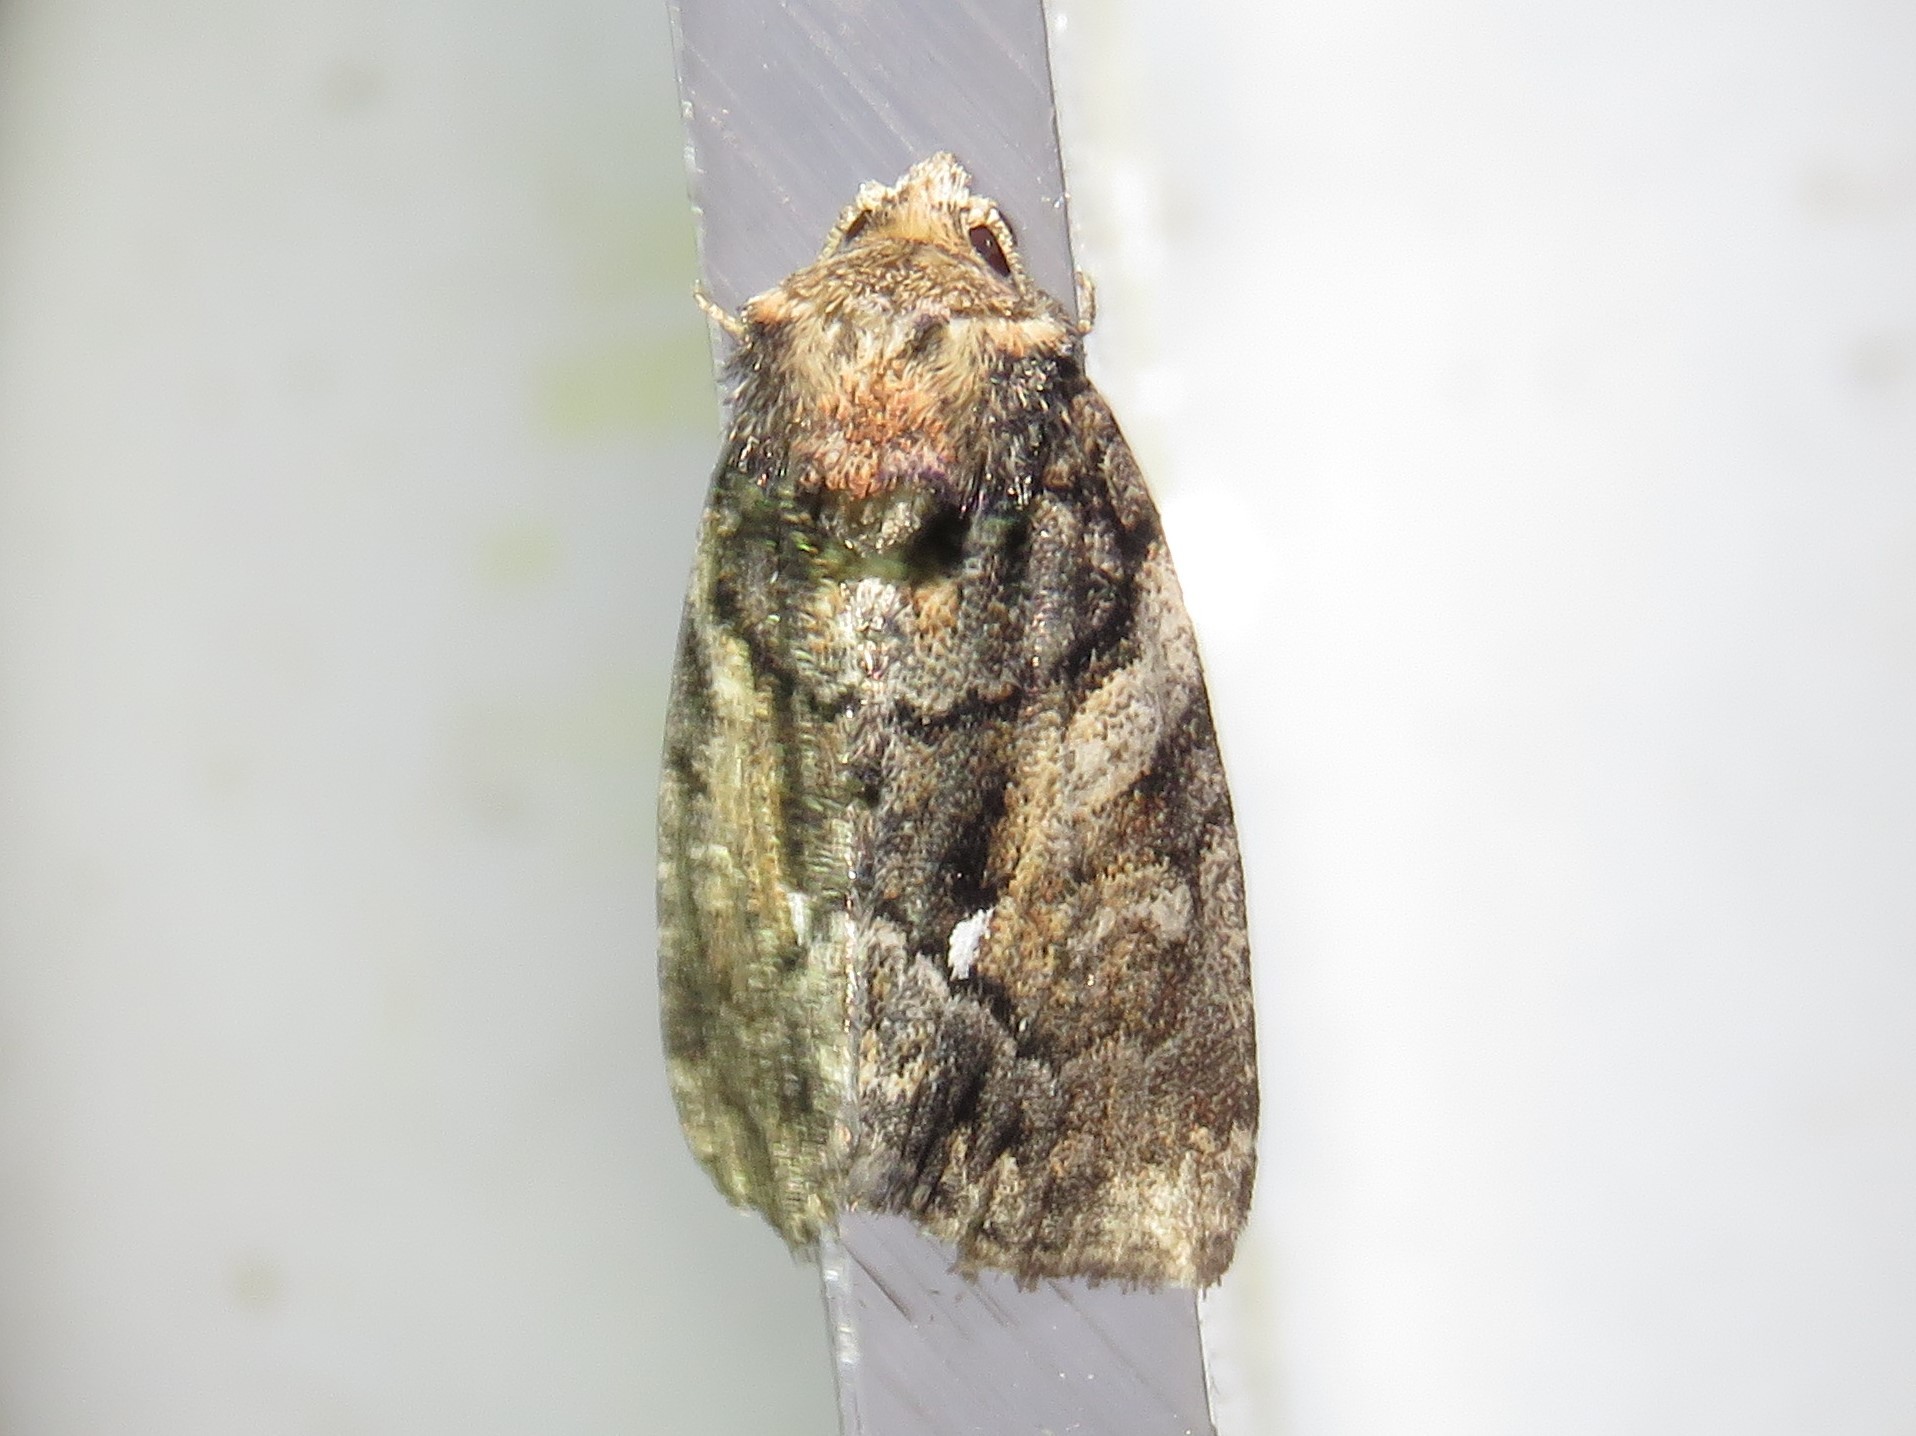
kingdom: Animalia
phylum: Arthropoda
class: Insecta
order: Lepidoptera
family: Noctuidae
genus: Chytonix
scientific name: Chytonix palliatricula
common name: Cloaked marvel
